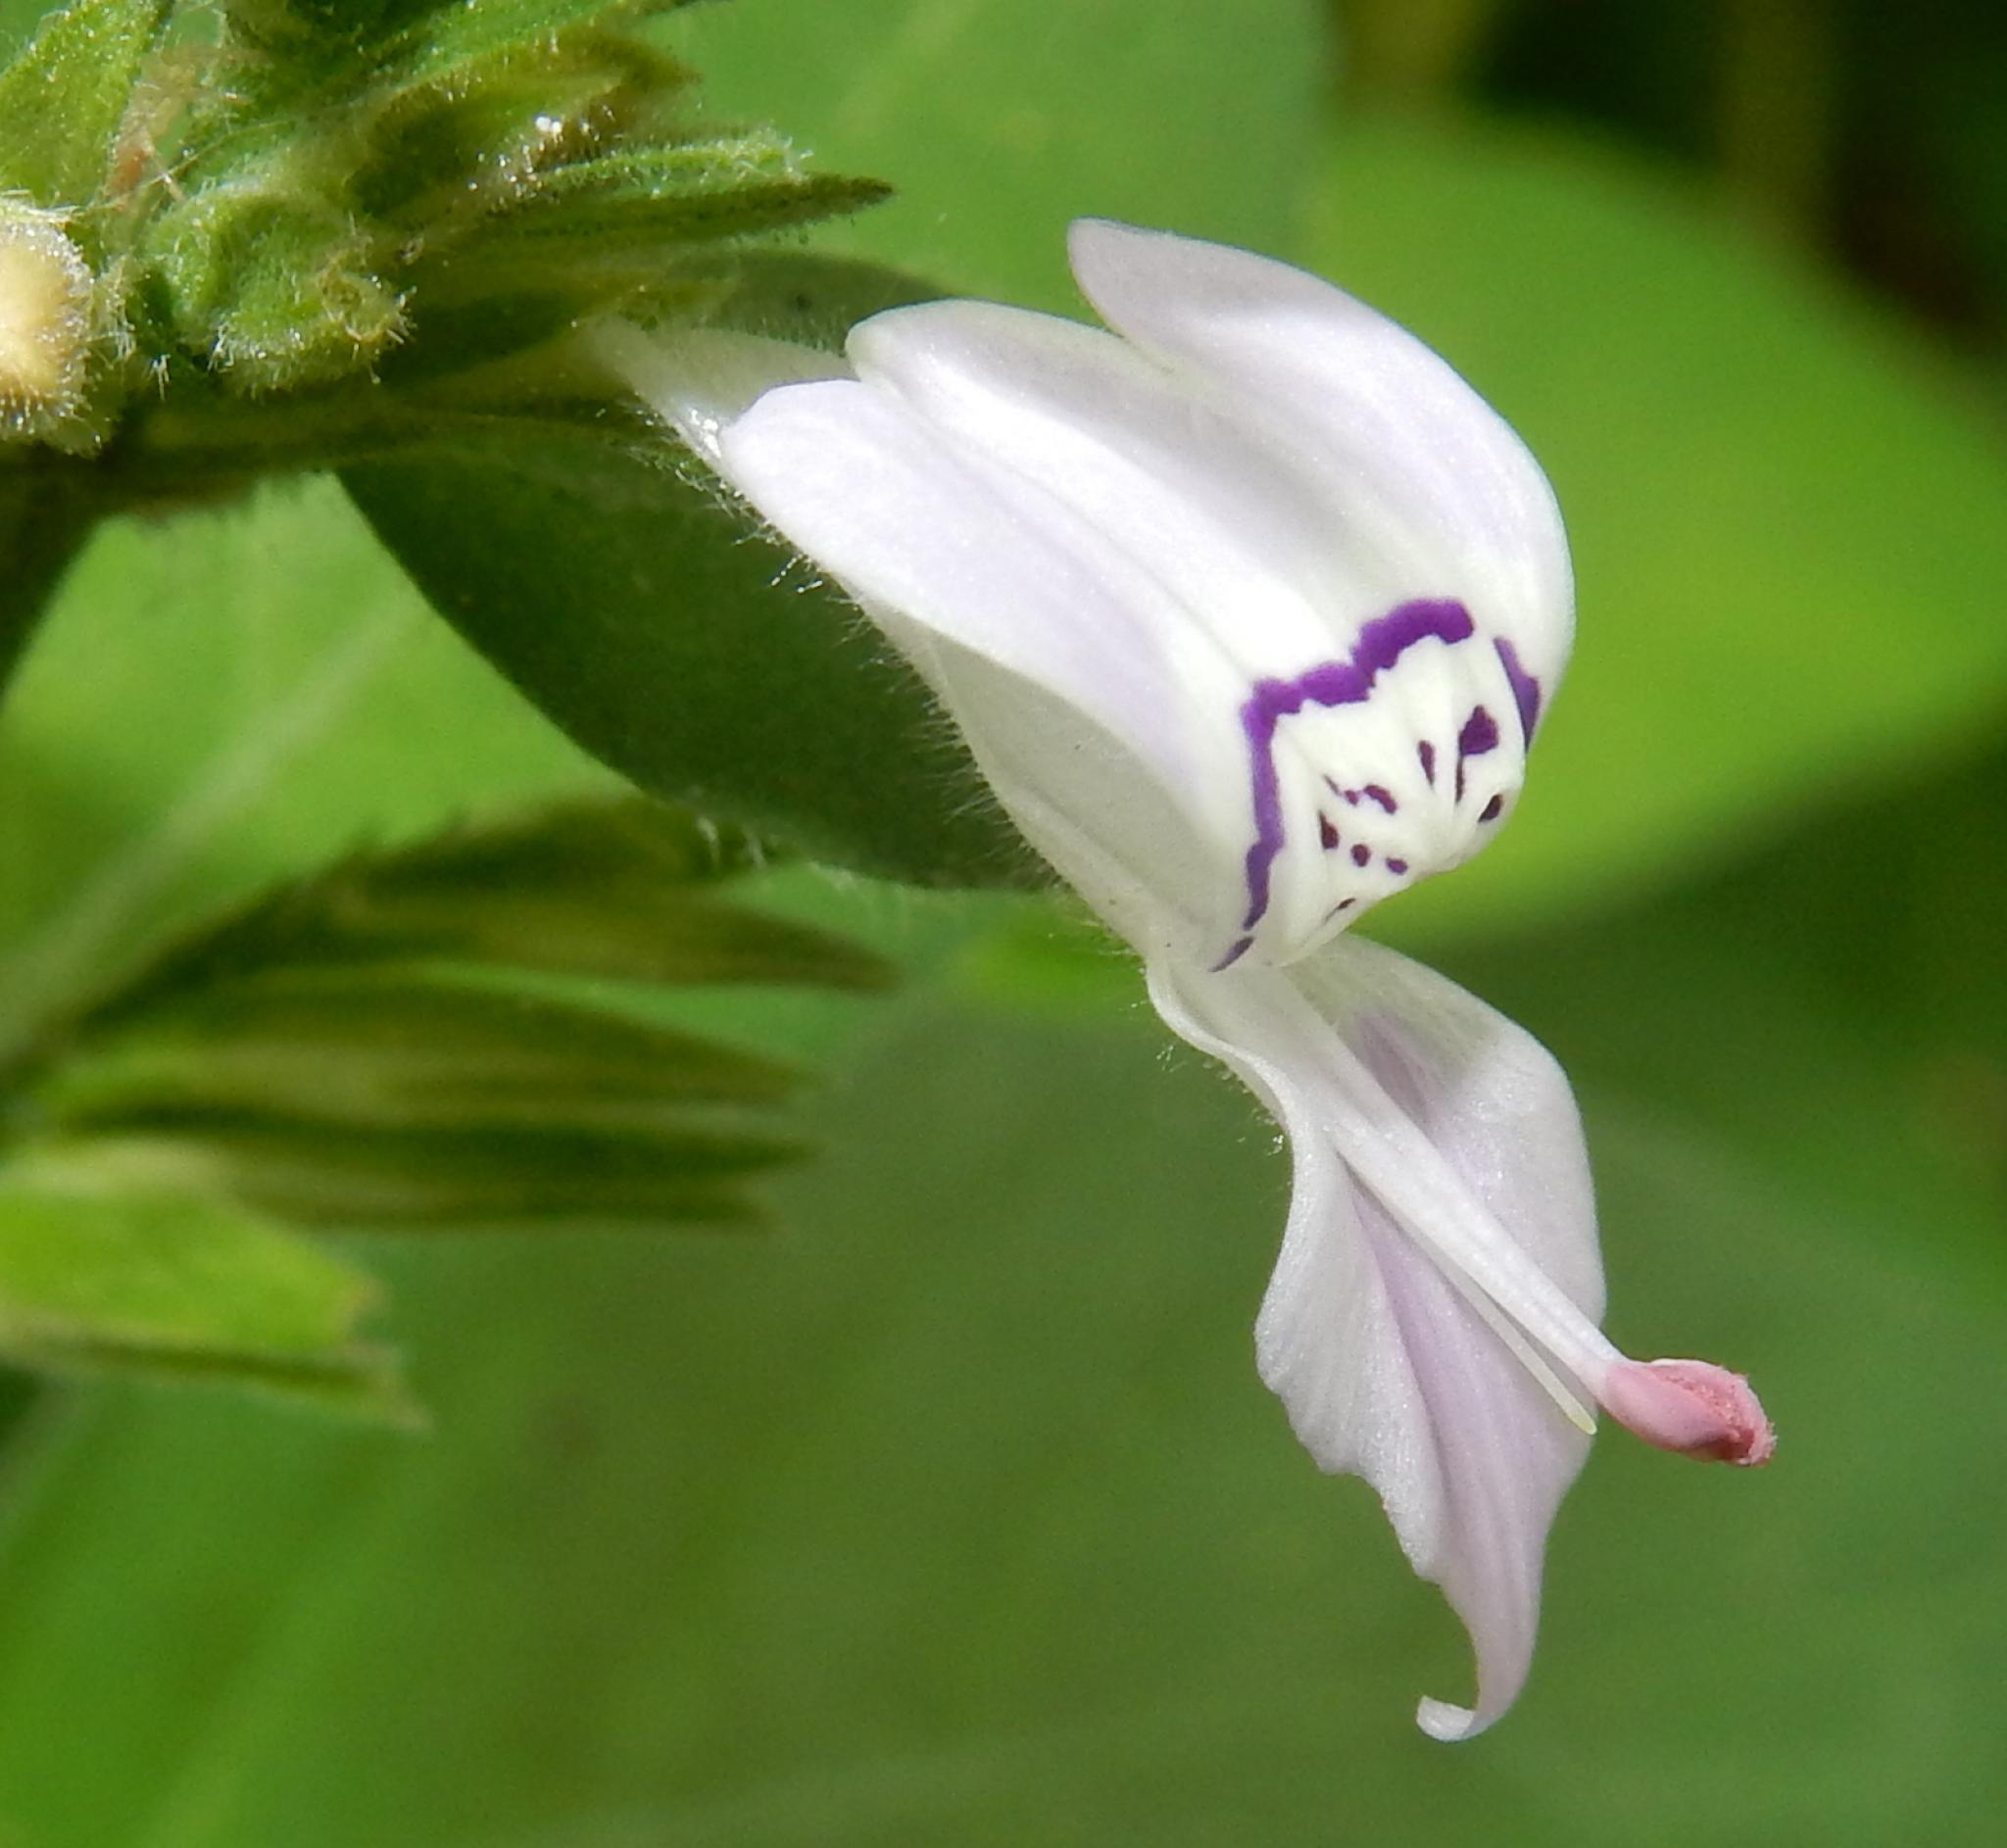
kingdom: Plantae
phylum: Tracheophyta
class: Magnoliopsida
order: Lamiales
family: Acanthaceae
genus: Hypoestes
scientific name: Hypoestes forskaolii
